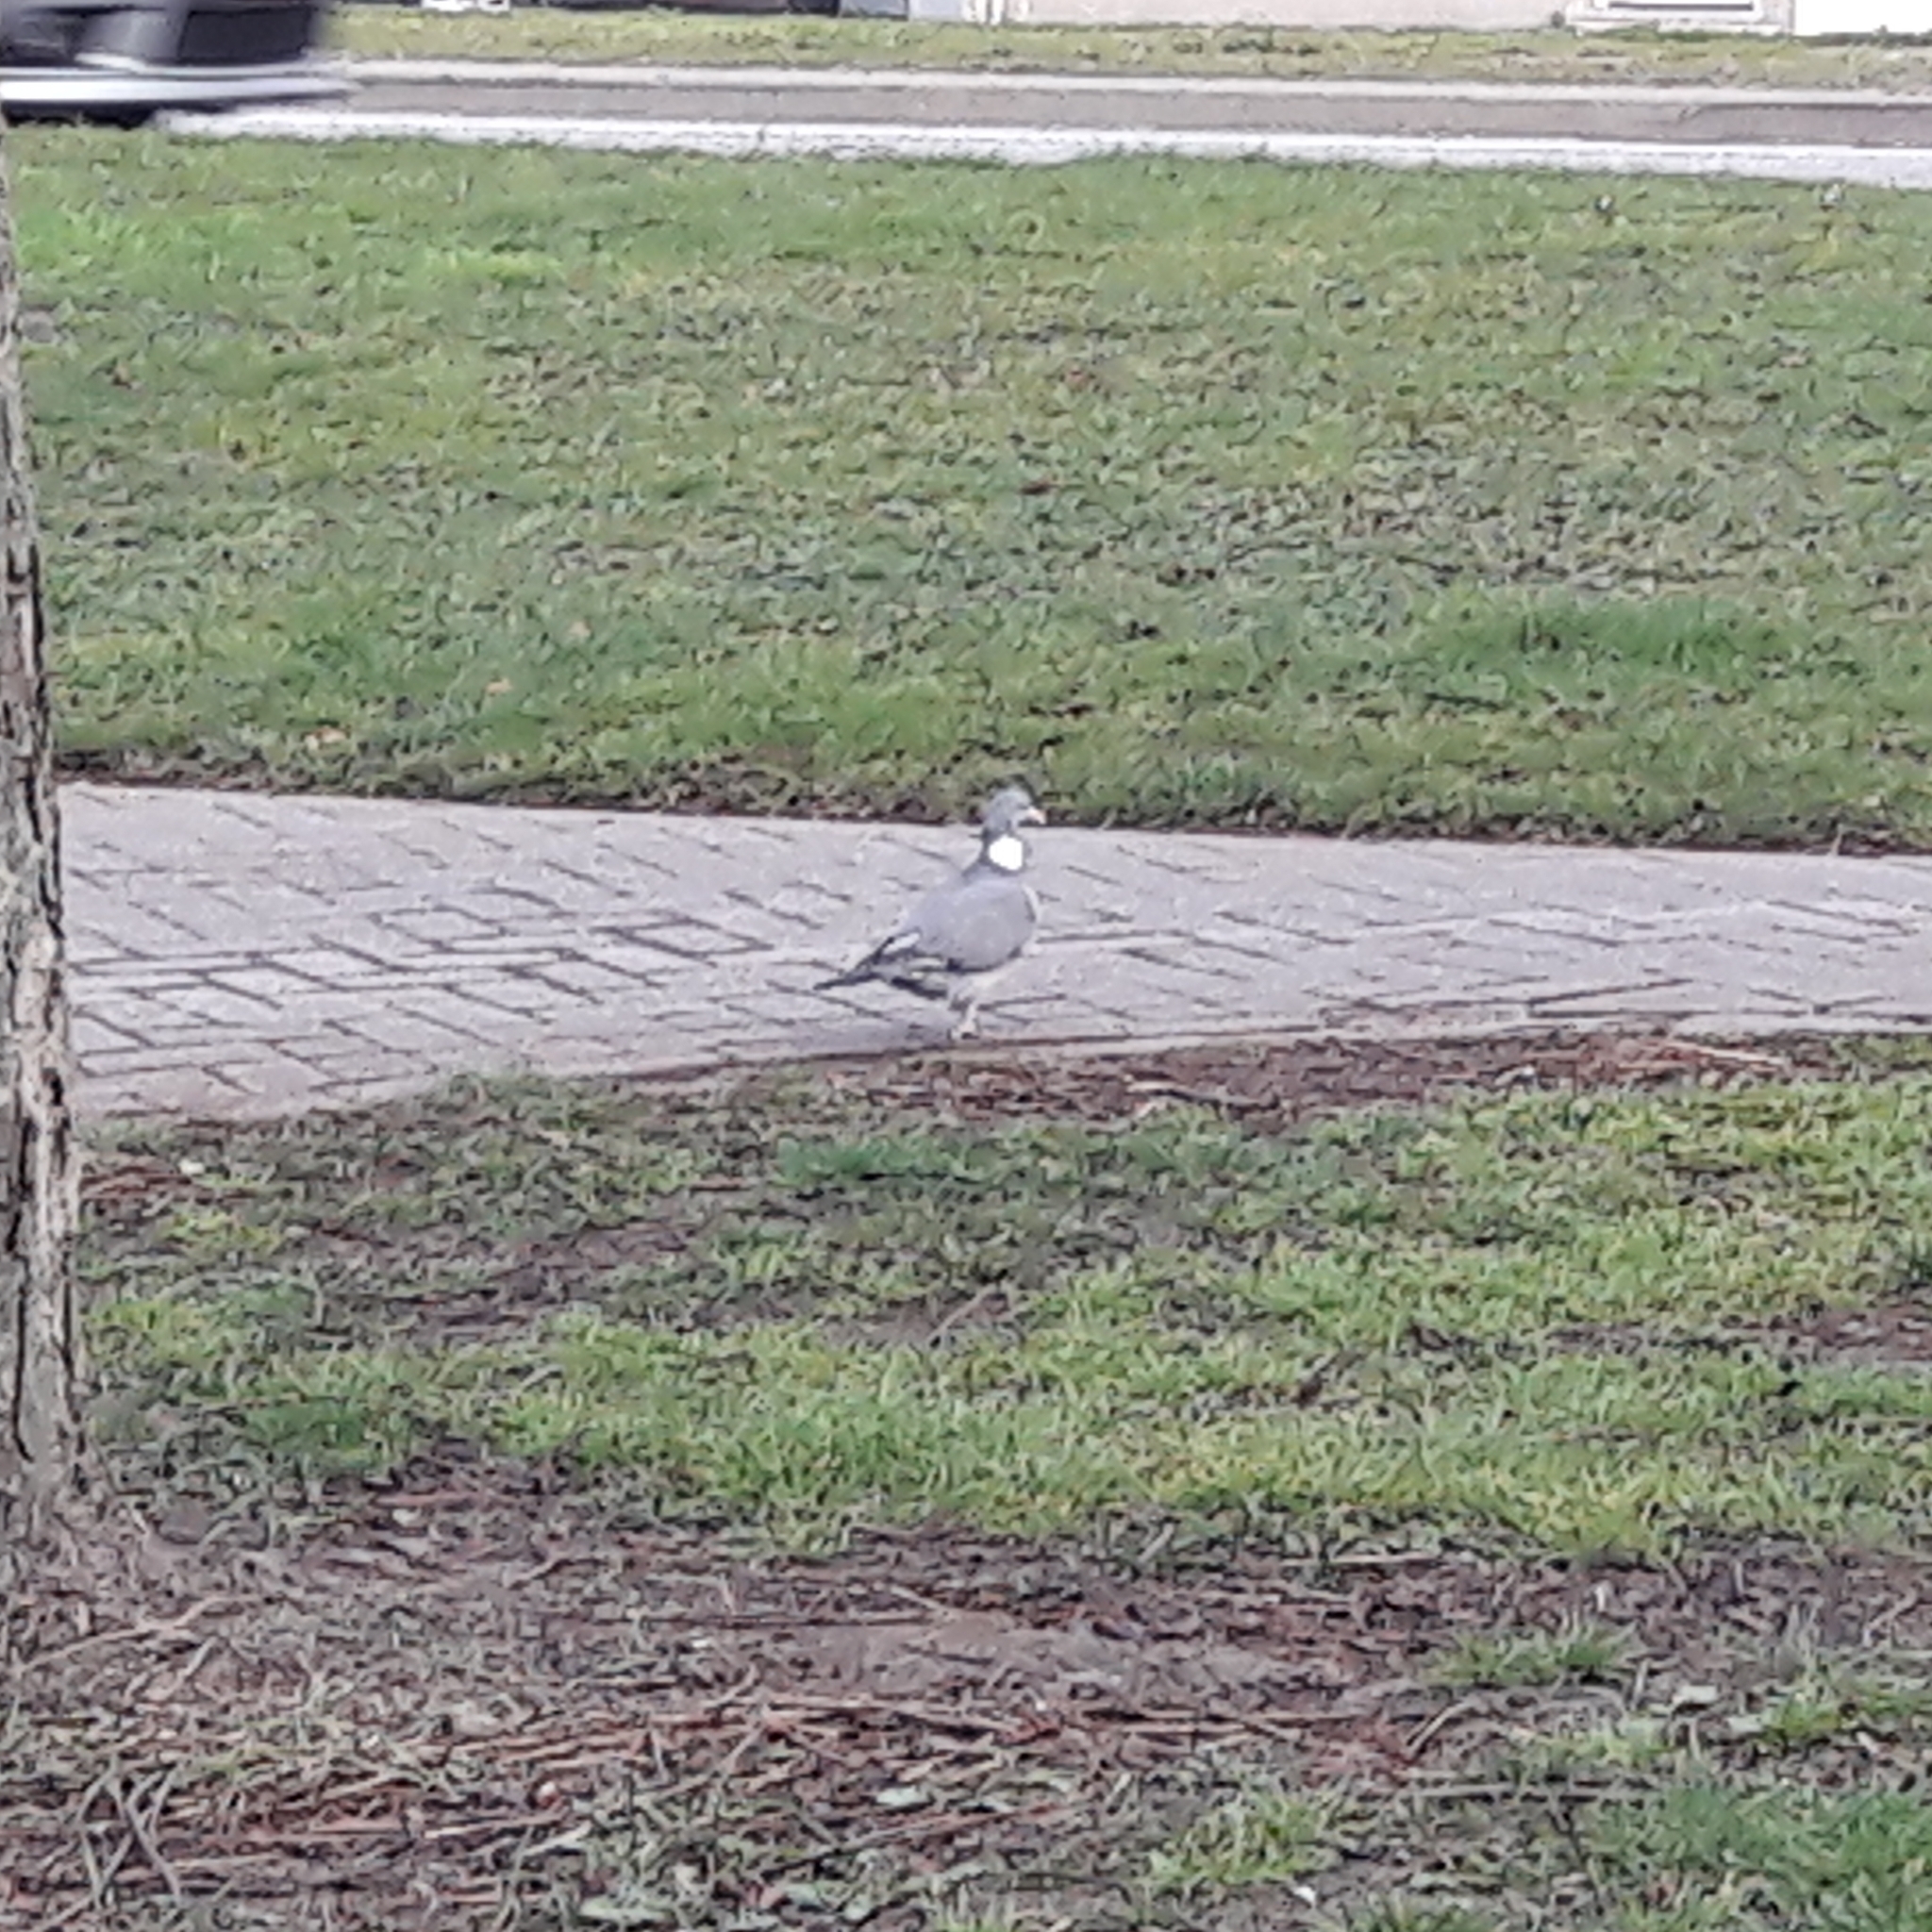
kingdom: Animalia
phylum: Chordata
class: Aves
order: Columbiformes
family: Columbidae
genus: Columba
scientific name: Columba palumbus
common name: Common wood pigeon
